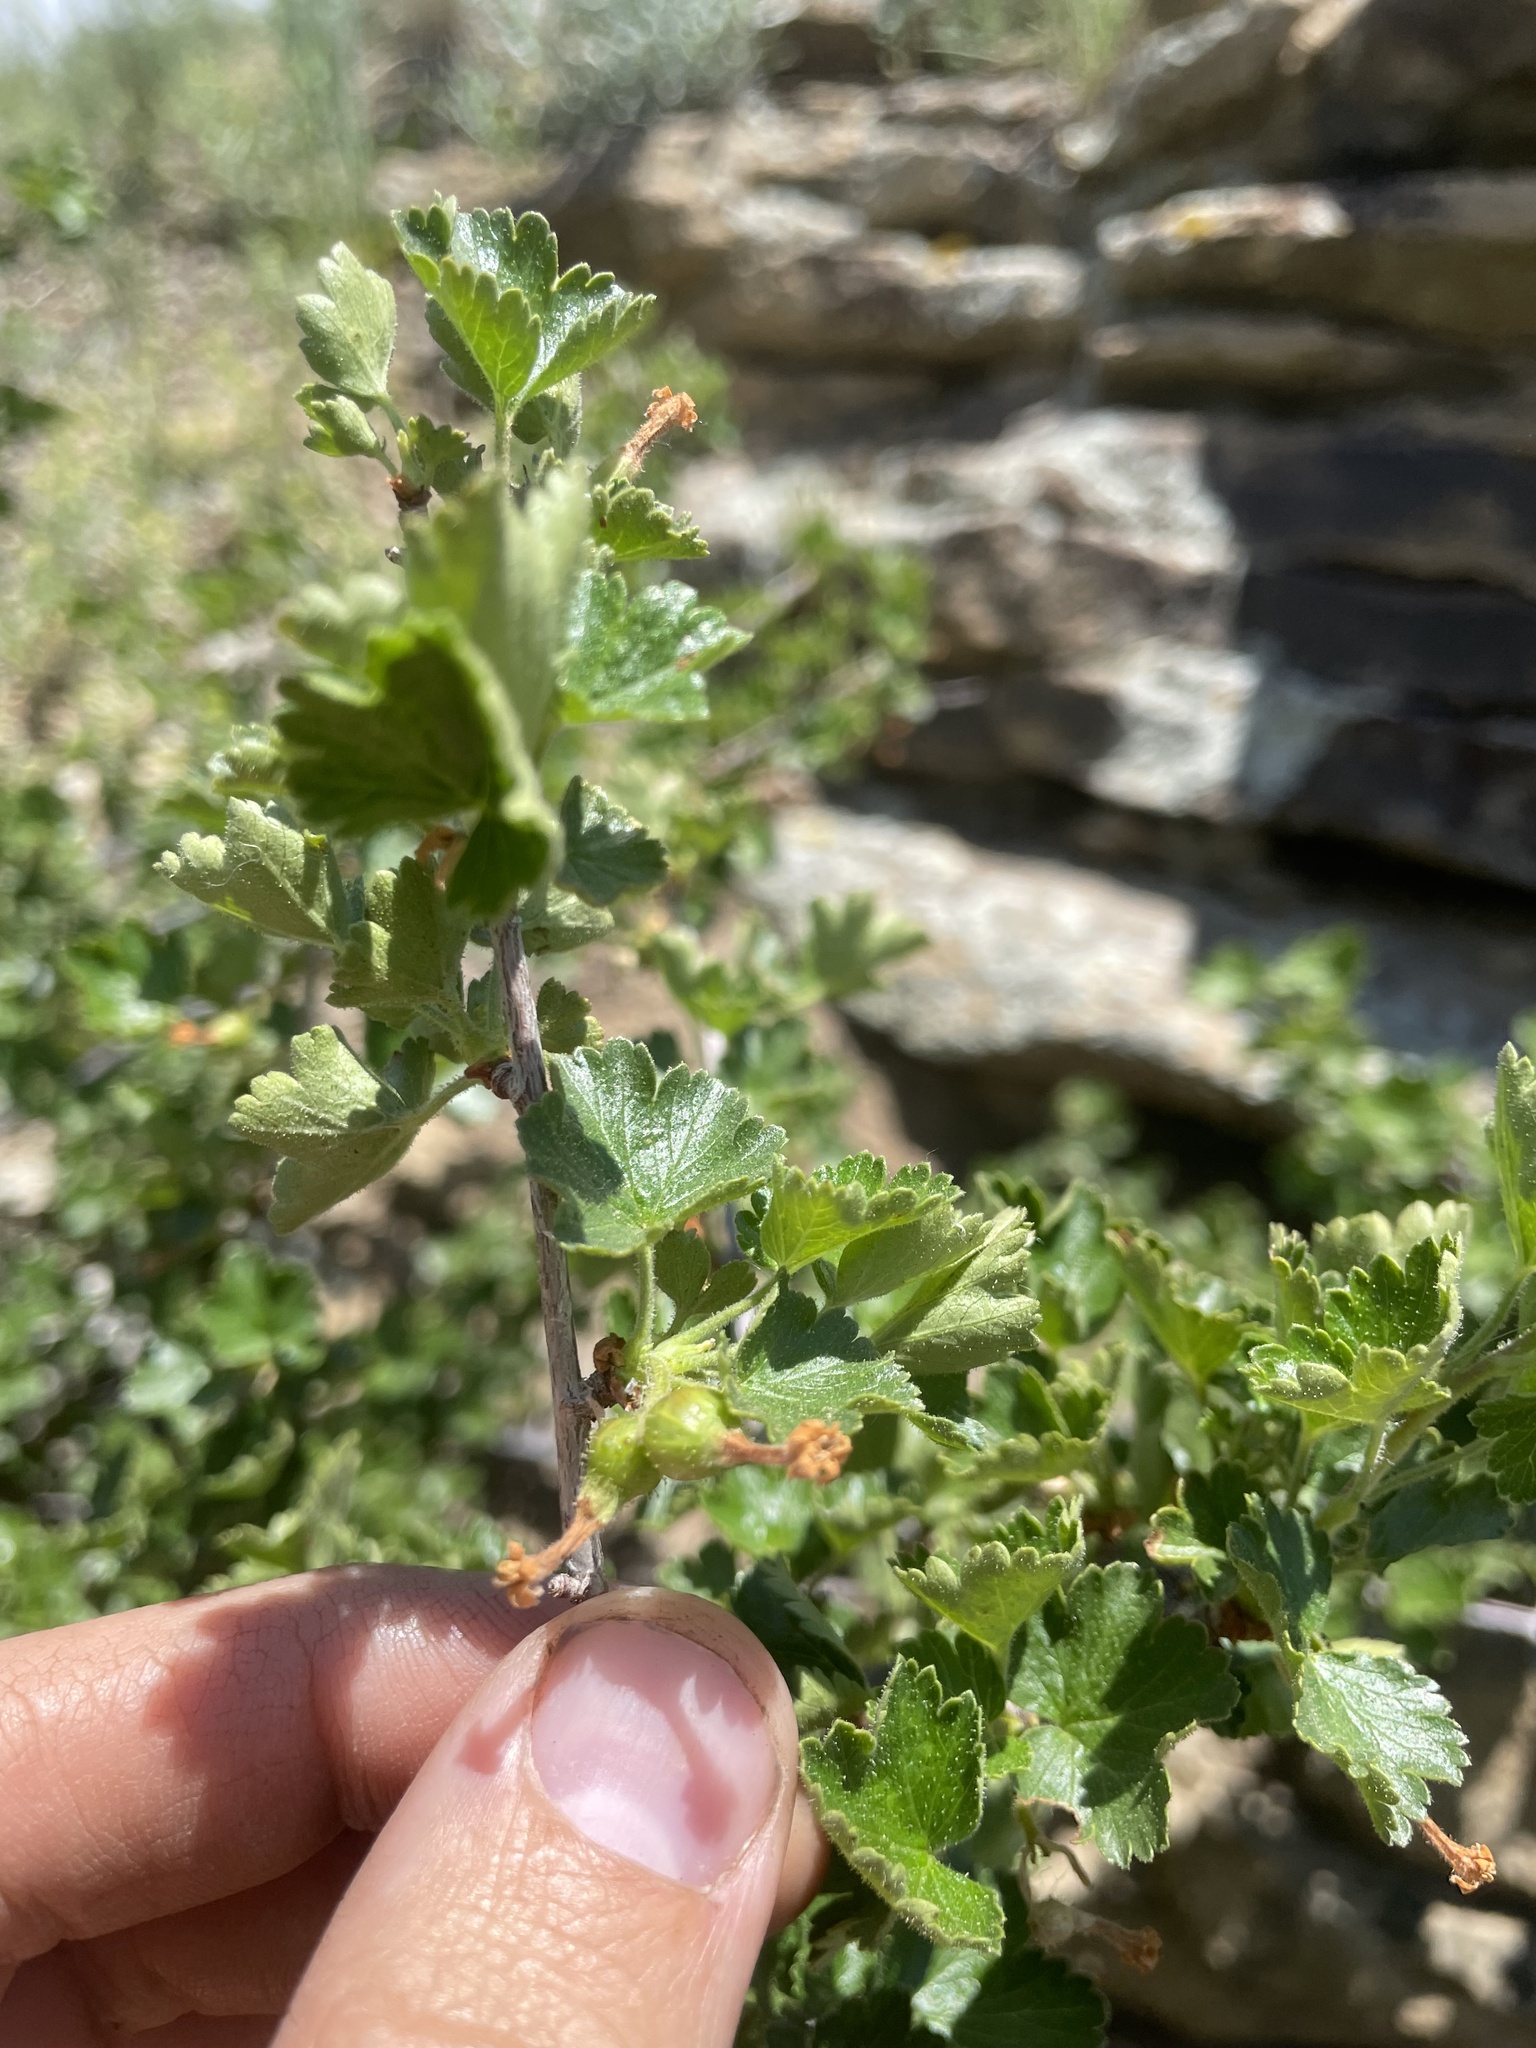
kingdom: Plantae
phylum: Tracheophyta
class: Magnoliopsida
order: Saxifragales
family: Grossulariaceae
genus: Ribes
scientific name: Ribes cereum
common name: Wax currant
